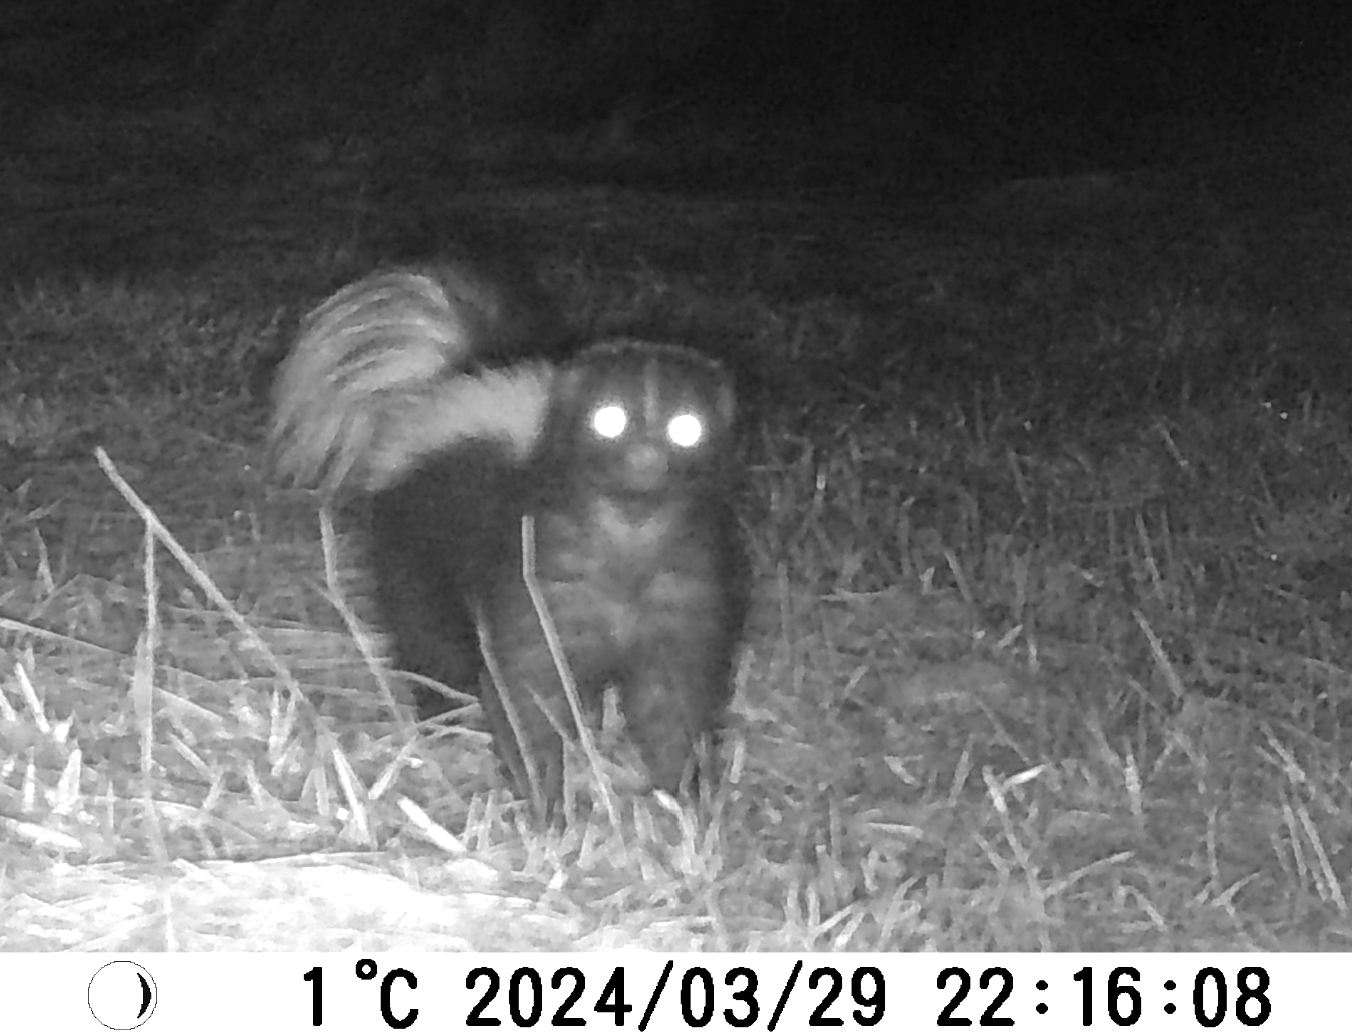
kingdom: Animalia
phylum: Chordata
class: Mammalia
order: Carnivora
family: Mephitidae
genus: Mephitis
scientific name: Mephitis mephitis
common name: Striped skunk
